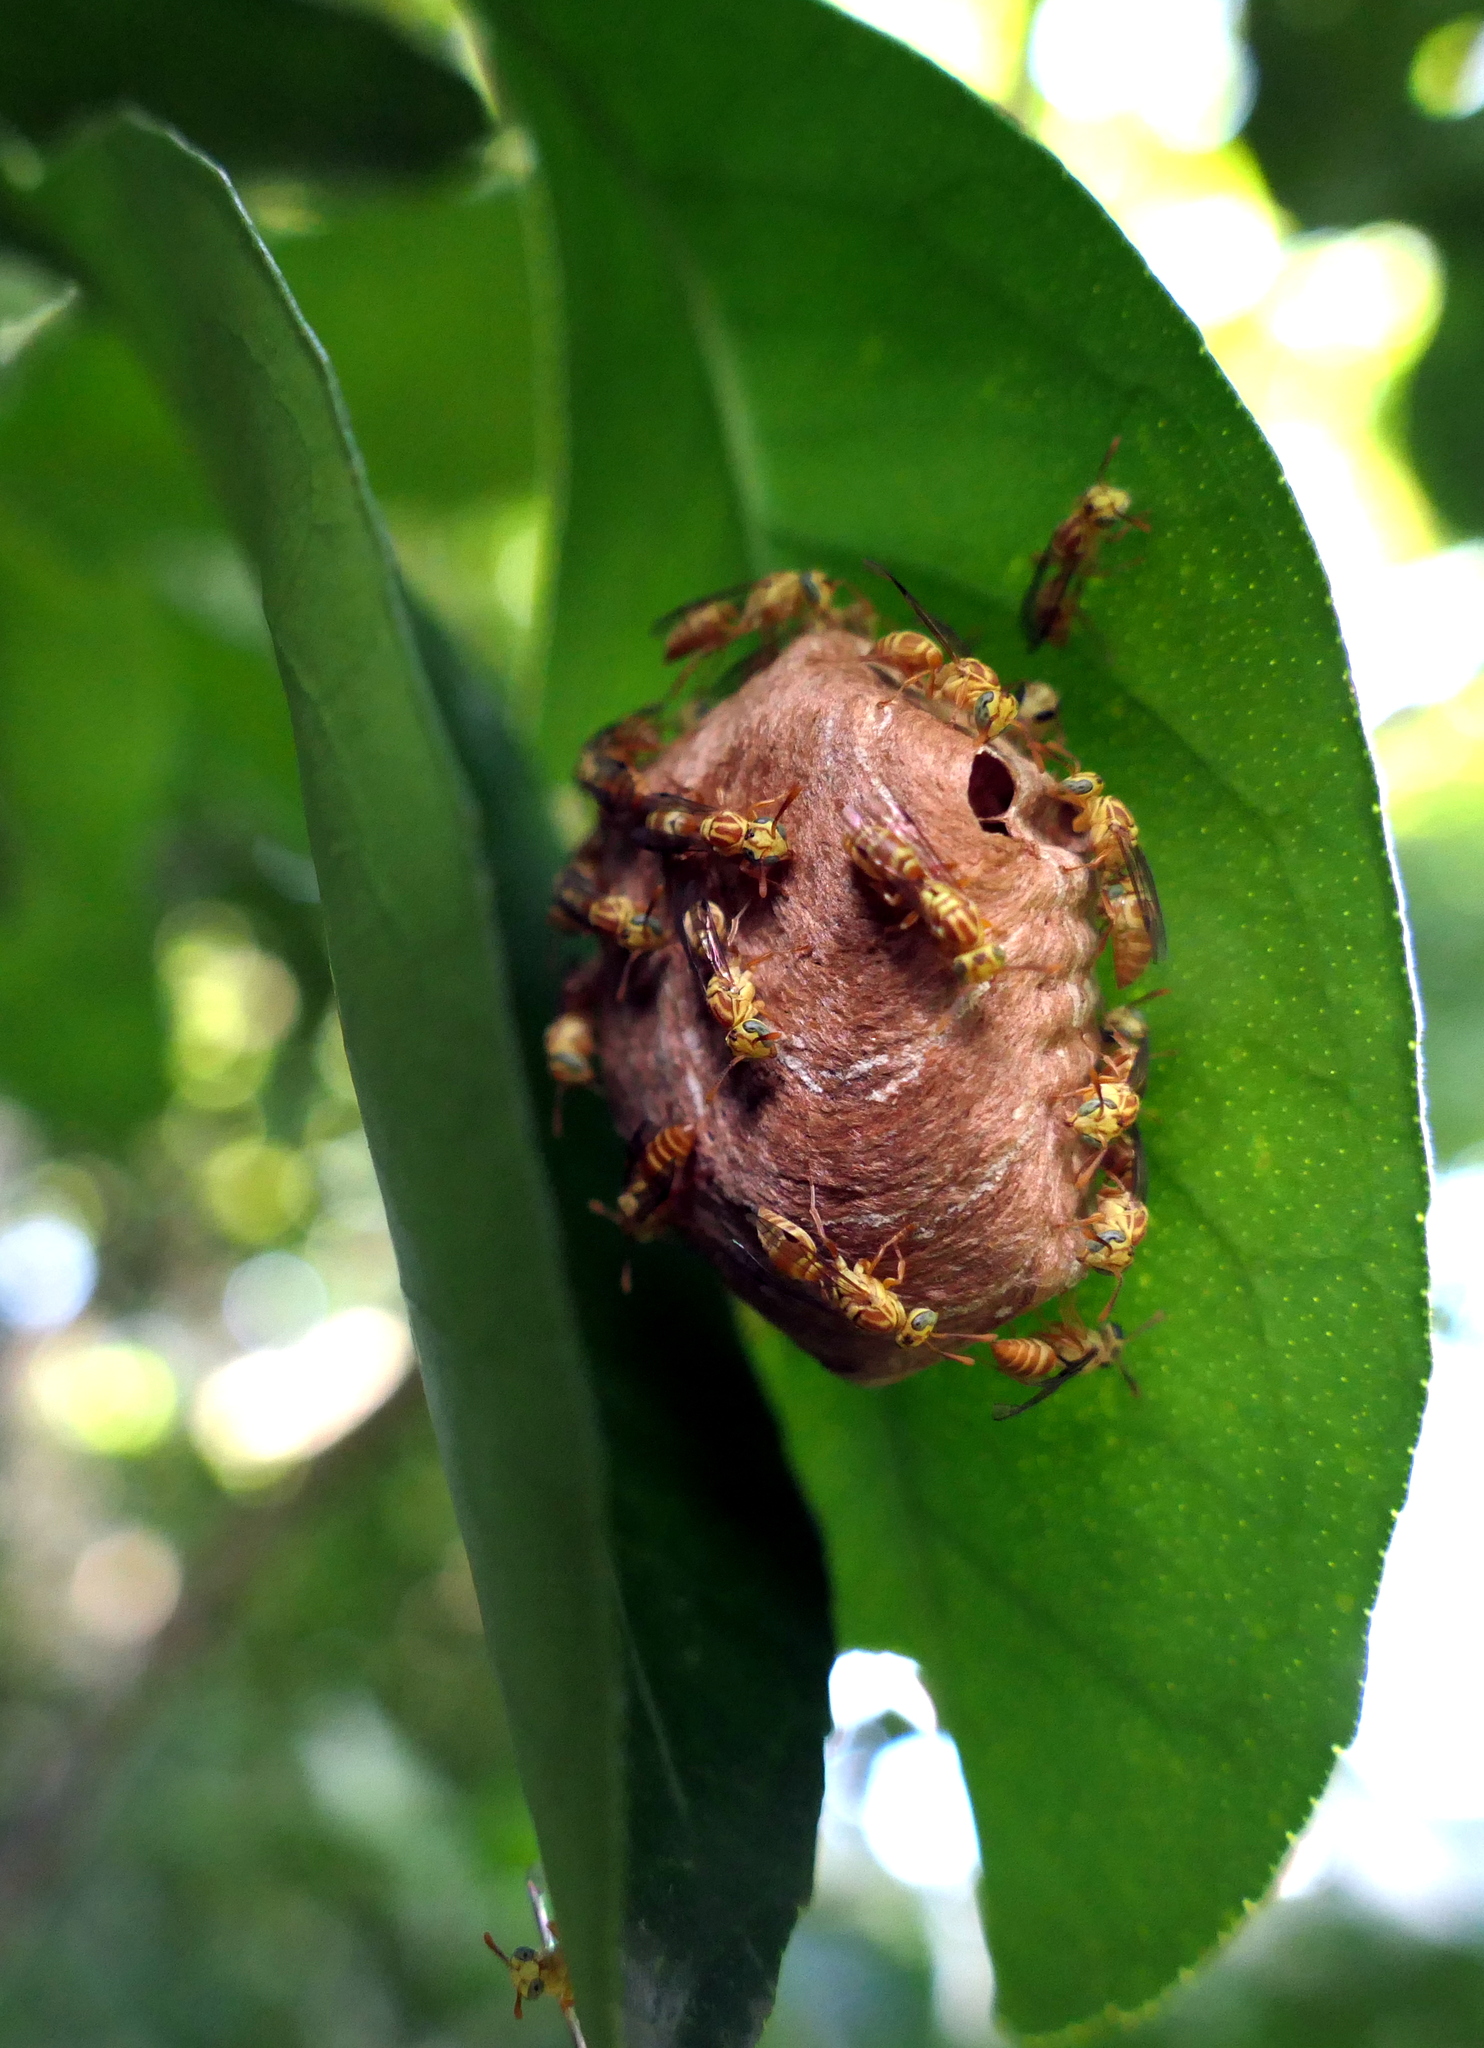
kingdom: Animalia
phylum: Arthropoda
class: Insecta
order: Hymenoptera
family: Vespidae
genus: Protopolybia
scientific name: Protopolybia potiguara
